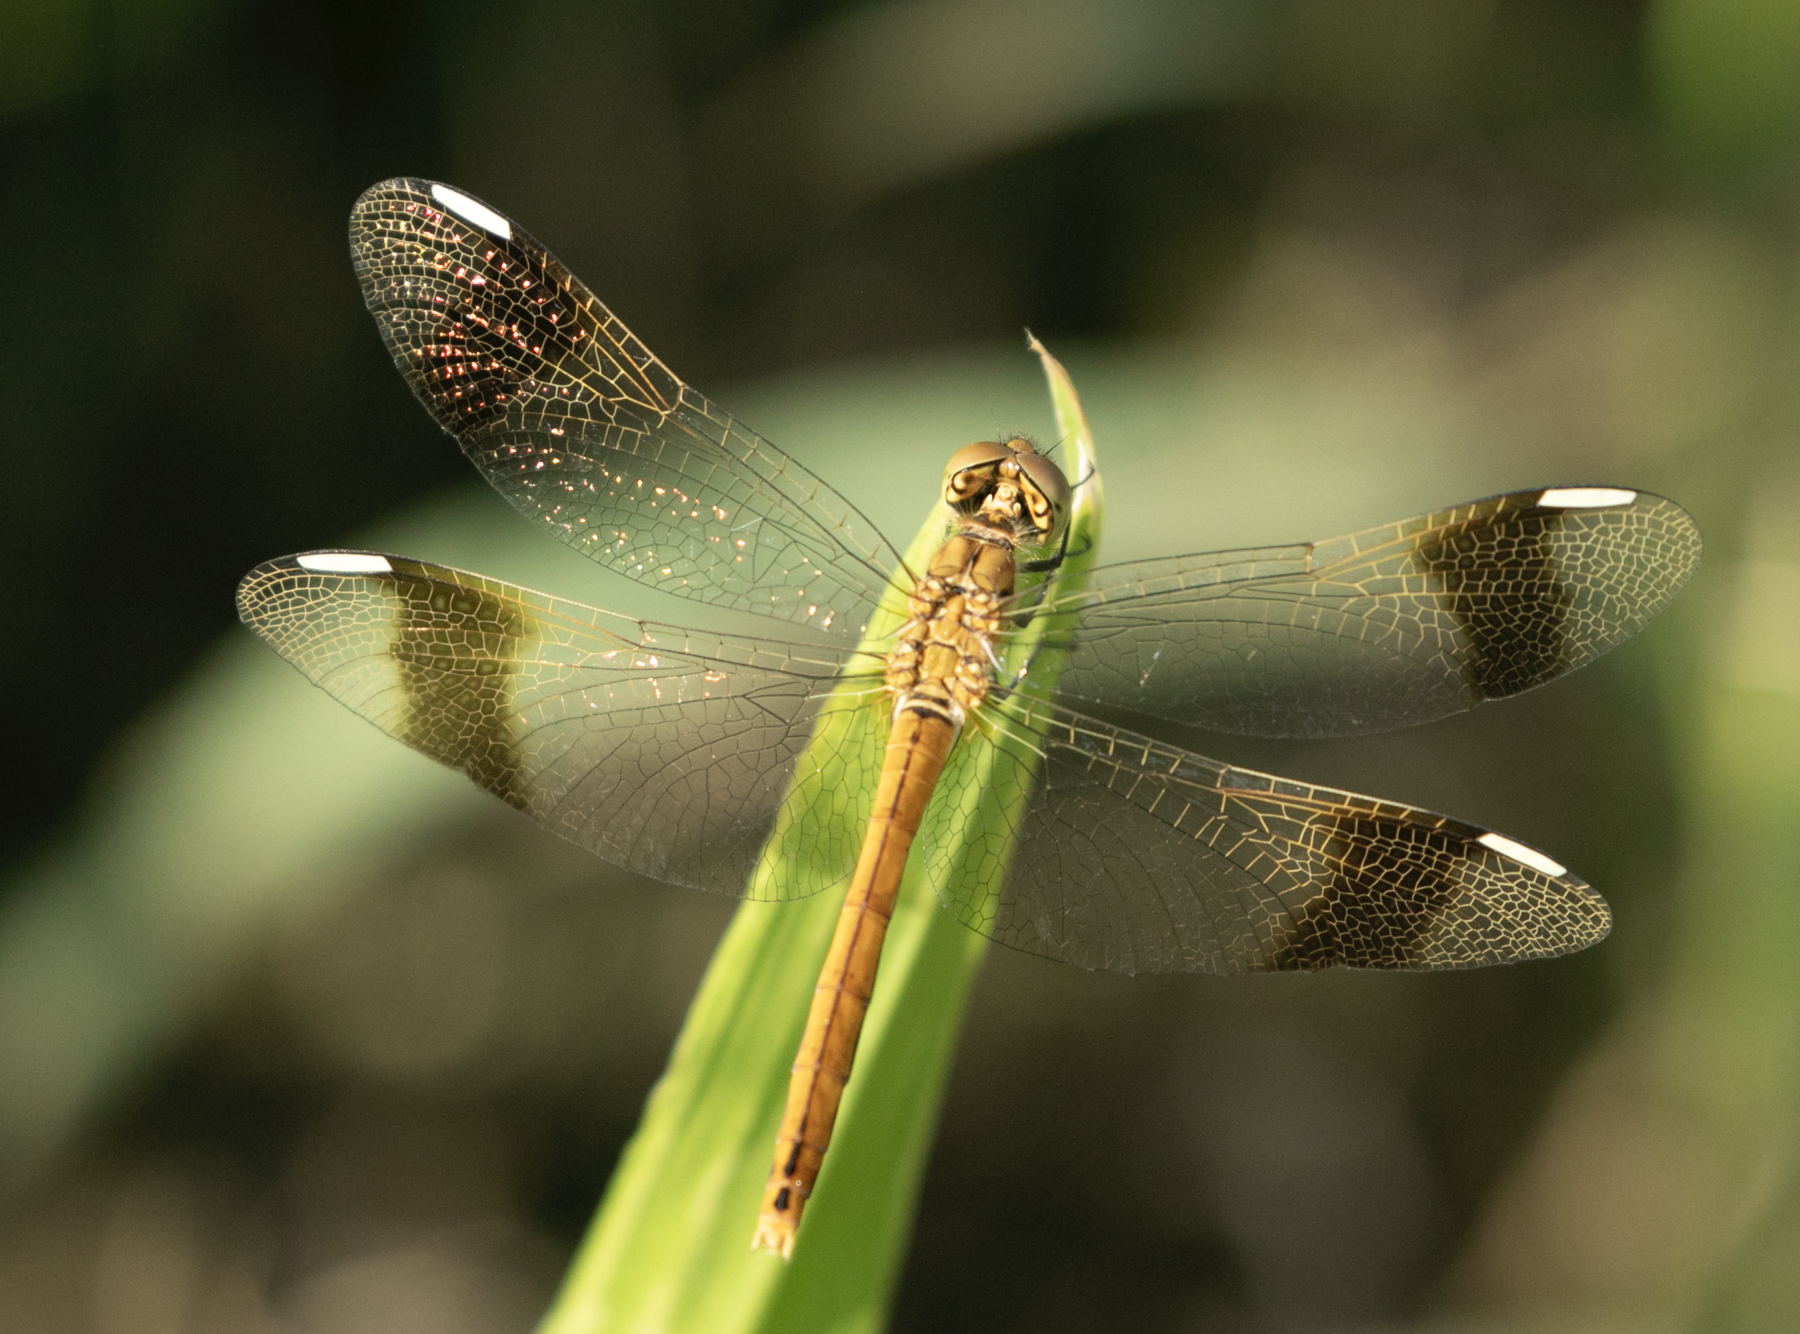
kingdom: Animalia
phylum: Arthropoda
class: Insecta
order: Odonata
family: Libellulidae
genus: Sympetrum
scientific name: Sympetrum pedemontanum
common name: Banded darter
